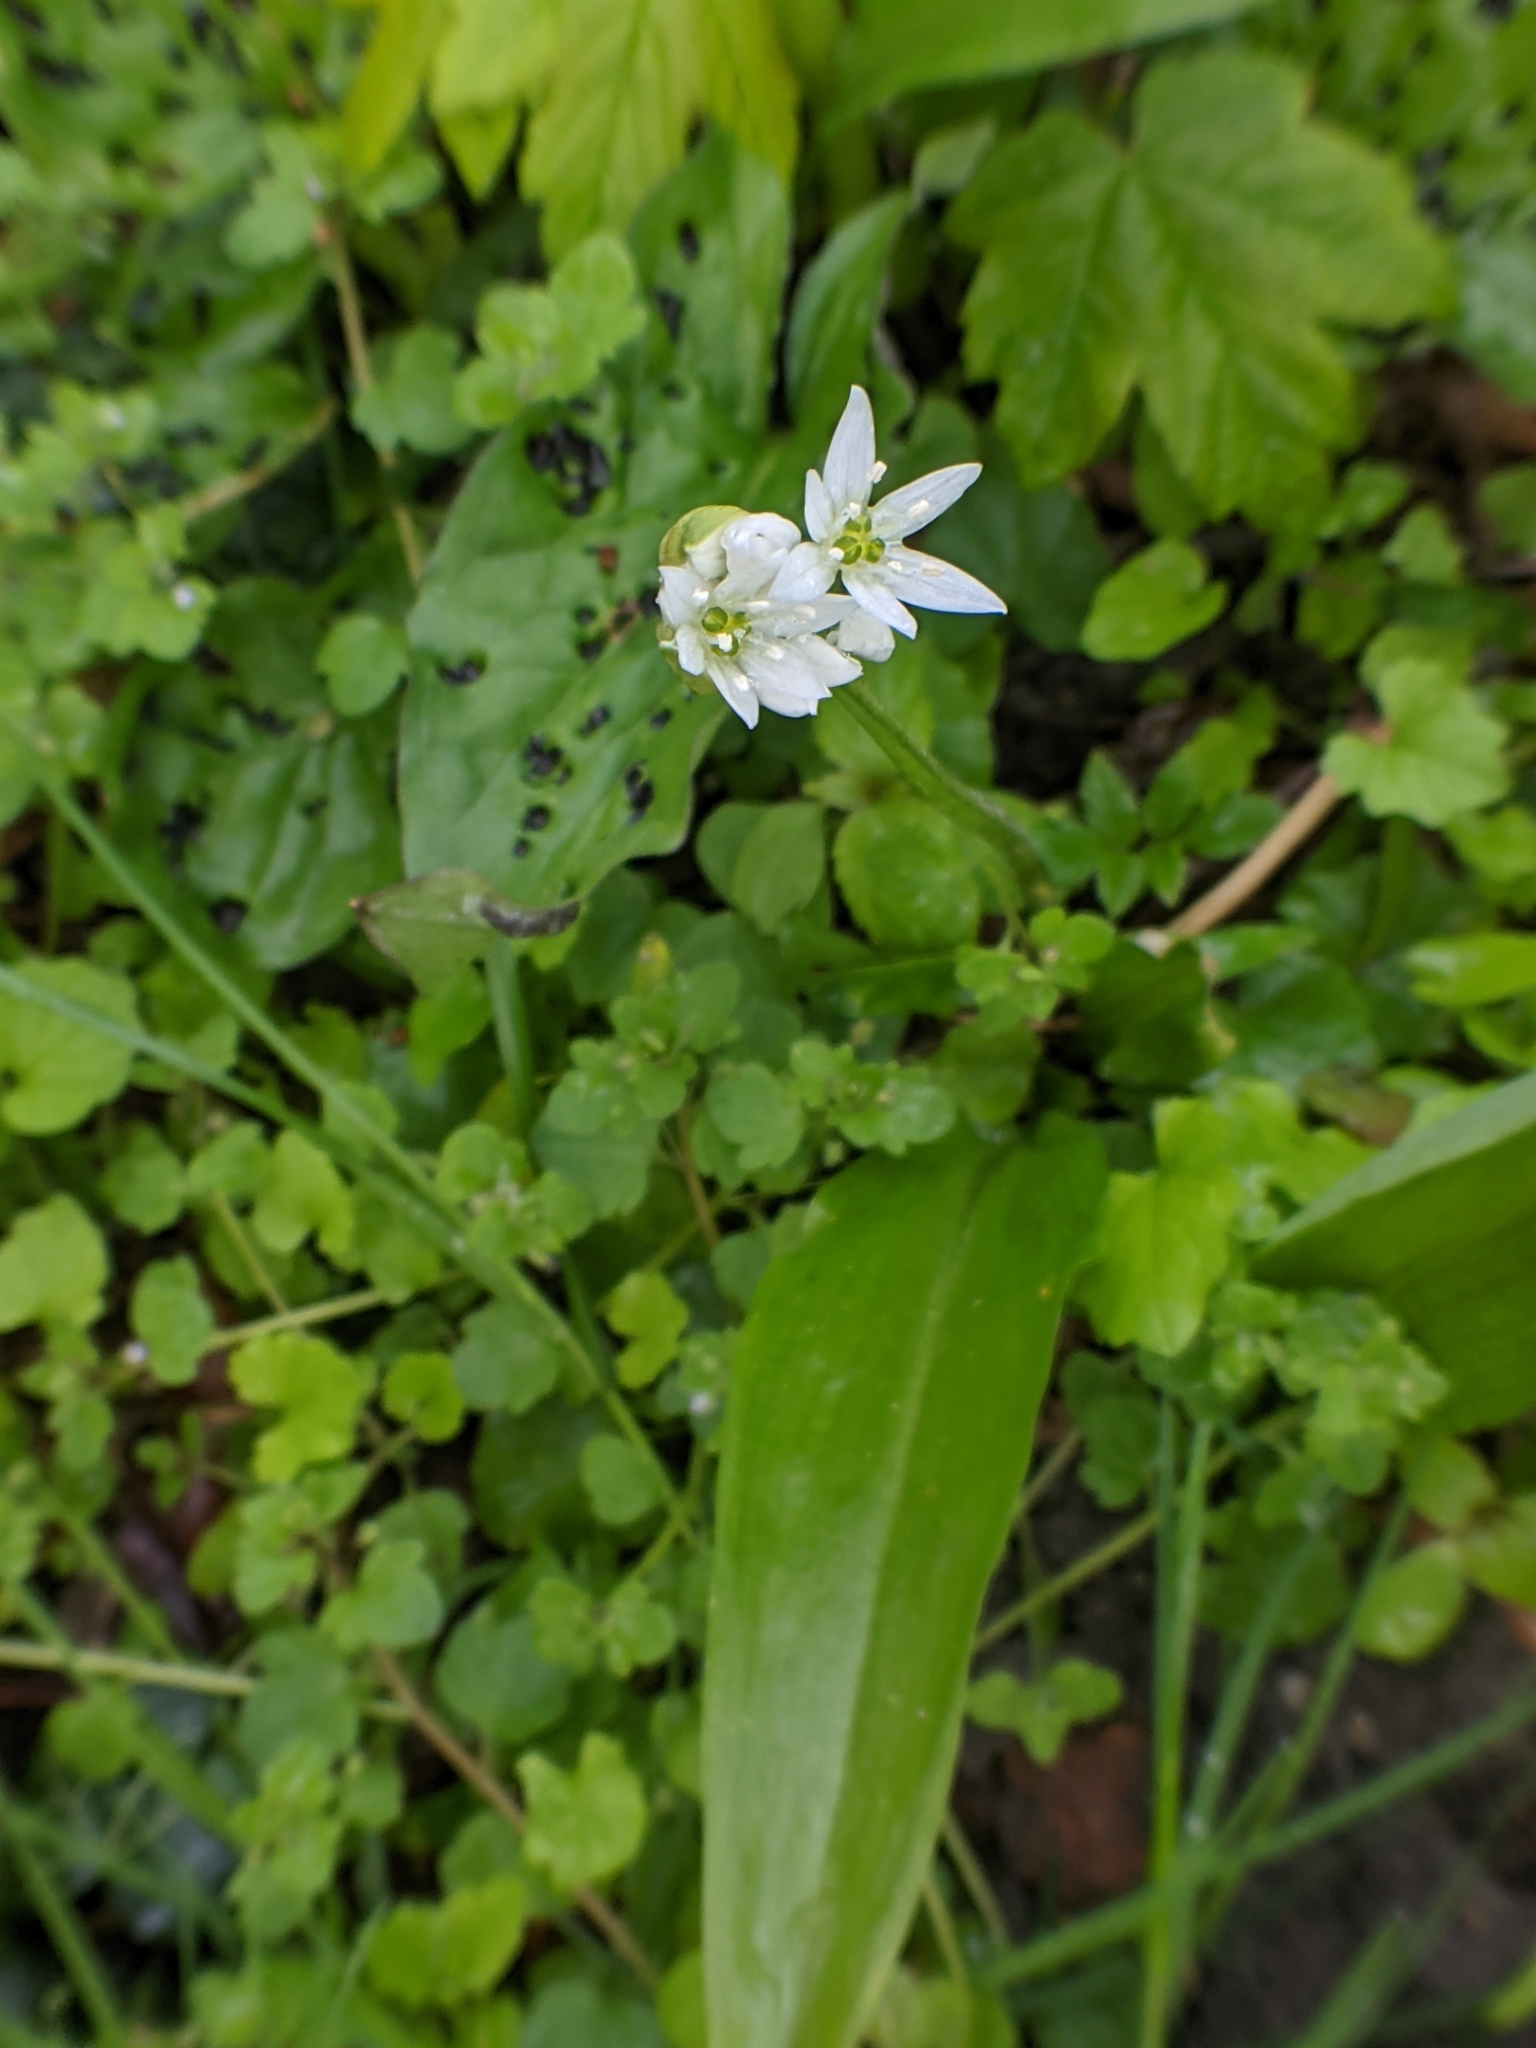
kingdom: Plantae
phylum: Tracheophyta
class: Liliopsida
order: Asparagales
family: Amaryllidaceae
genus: Allium
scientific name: Allium ursinum
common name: Ramsons
